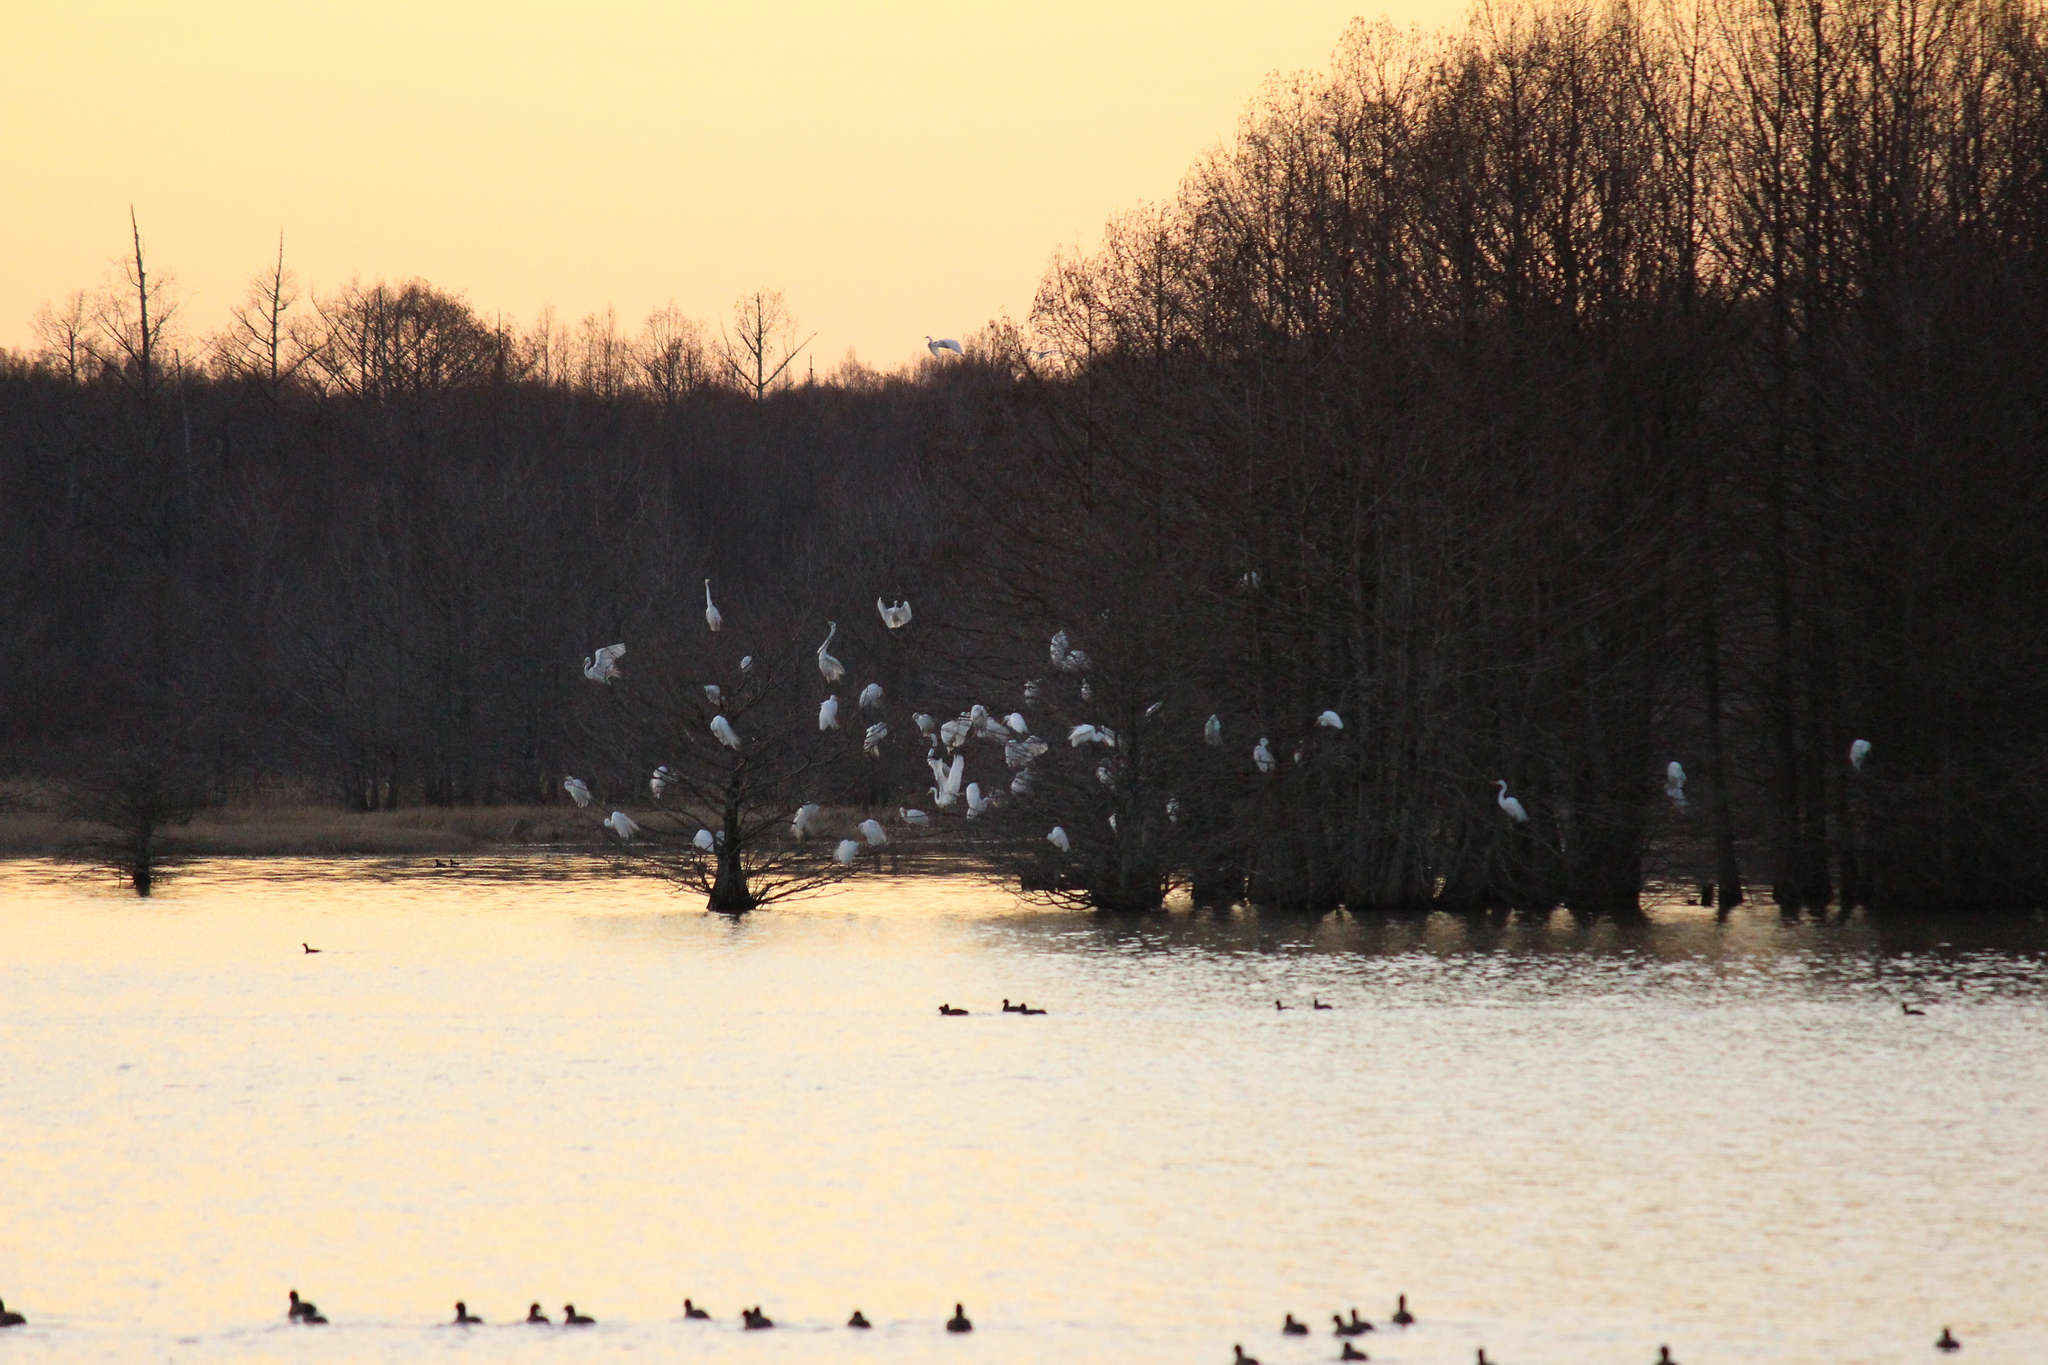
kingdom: Animalia
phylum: Chordata
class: Aves
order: Pelecaniformes
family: Ardeidae
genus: Ardea
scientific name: Ardea alba
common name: Great egret
